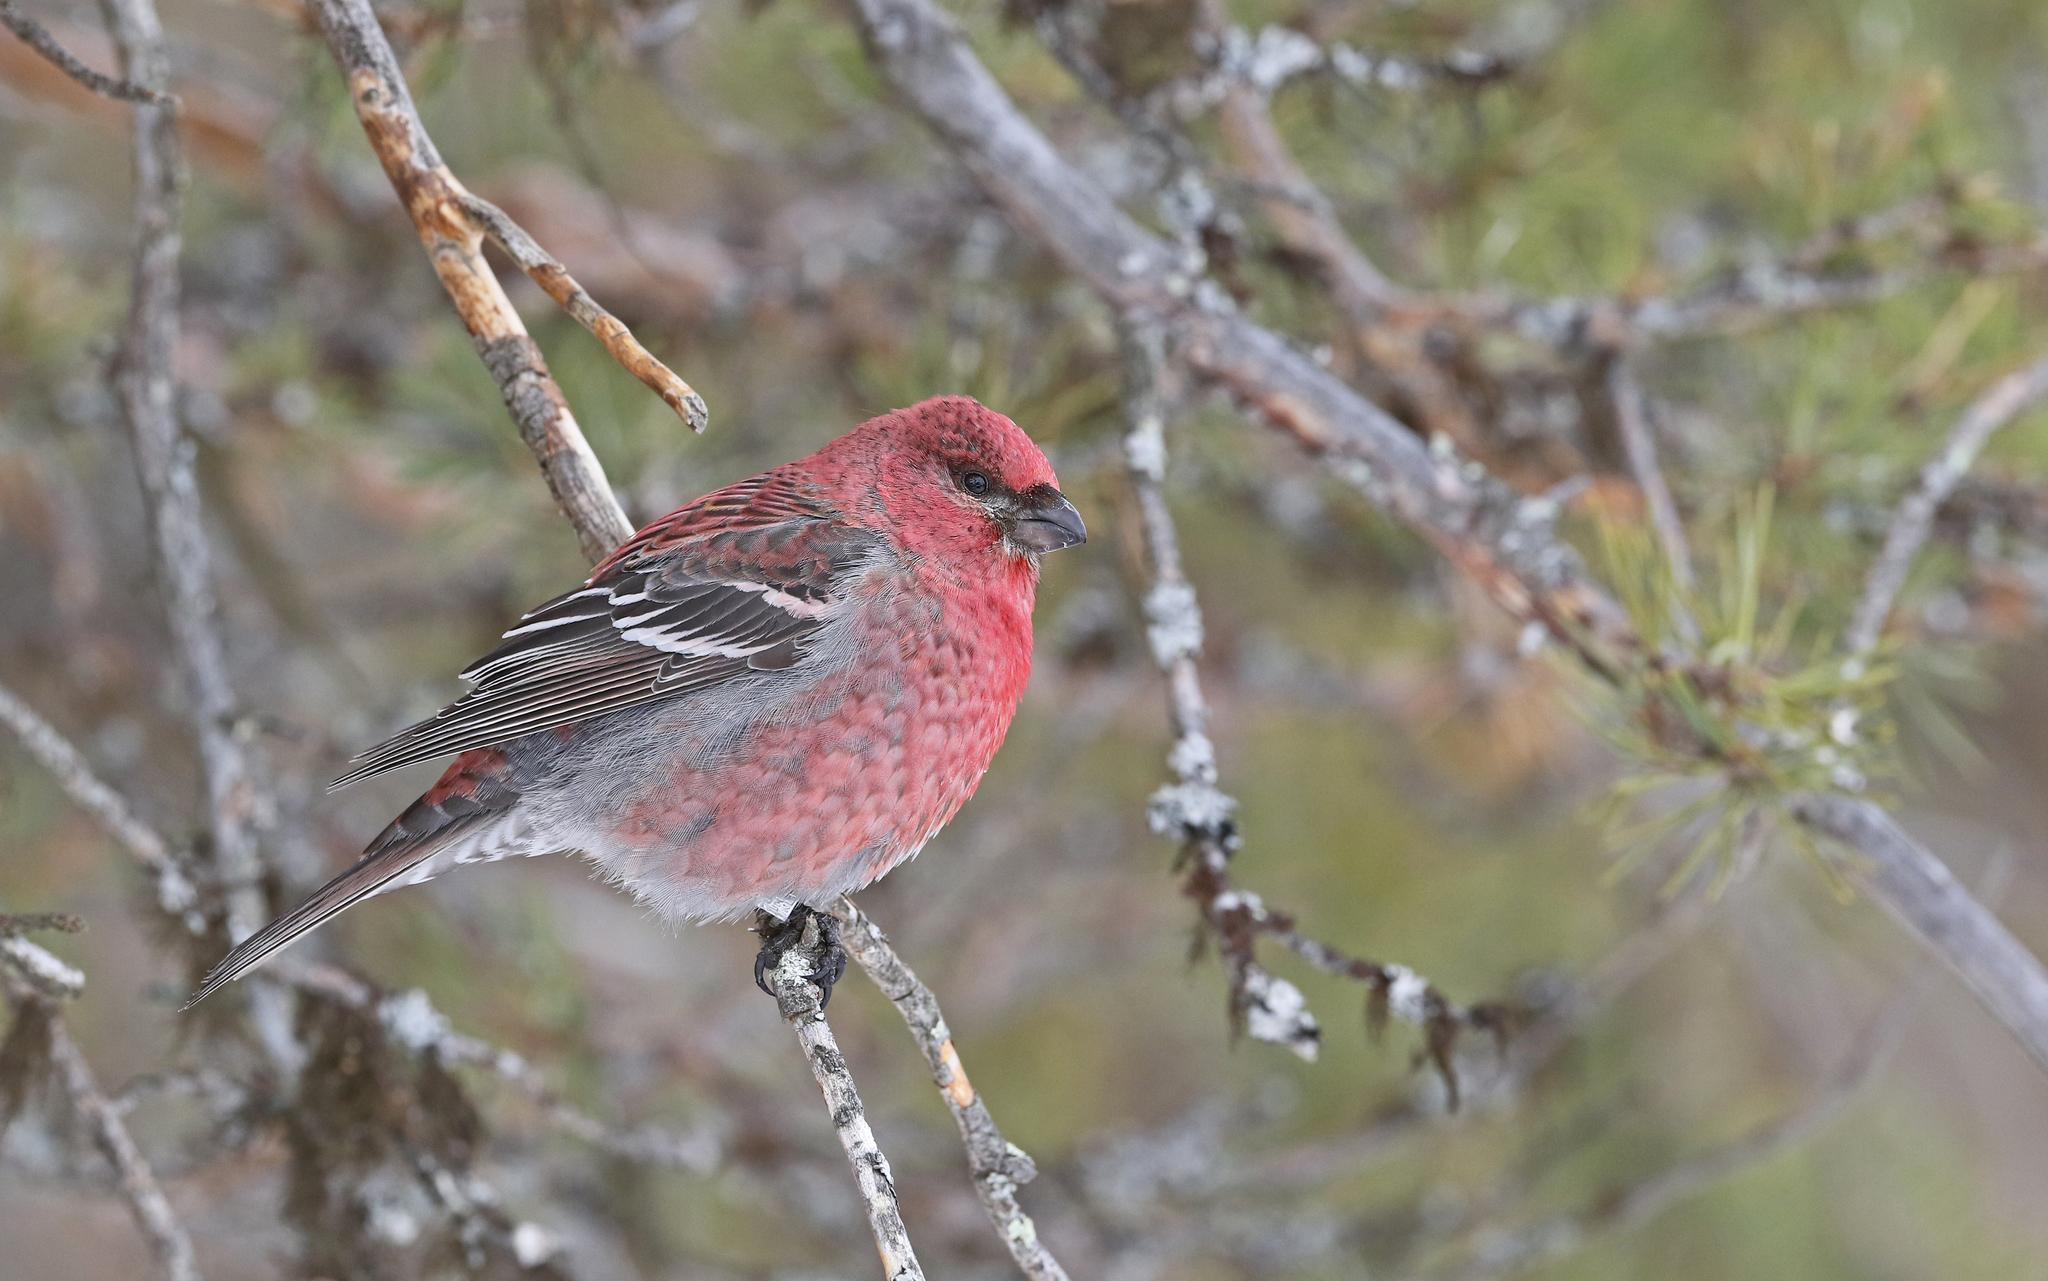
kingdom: Animalia
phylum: Chordata
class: Aves
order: Passeriformes
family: Fringillidae
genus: Pinicola
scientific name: Pinicola enucleator
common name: Pine grosbeak
